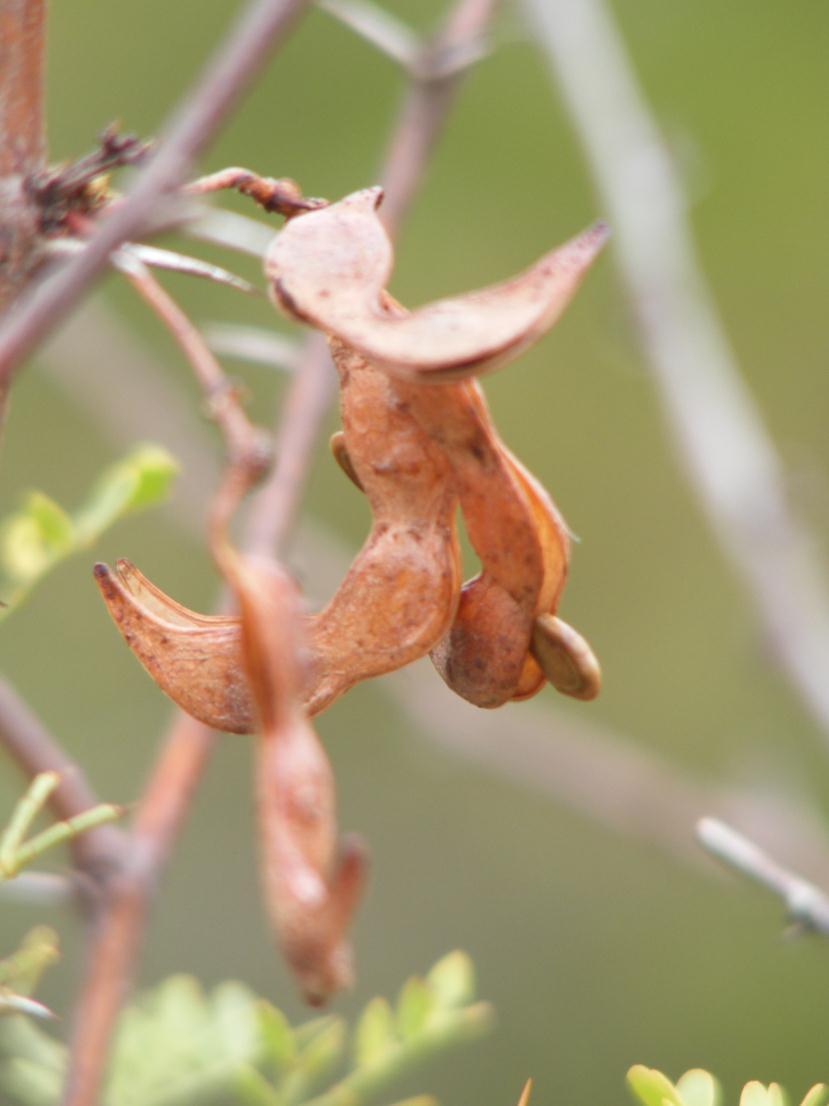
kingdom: Plantae
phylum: Tracheophyta
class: Magnoliopsida
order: Fabales
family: Fabaceae
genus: Vachellia
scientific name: Vachellia exuvialis
